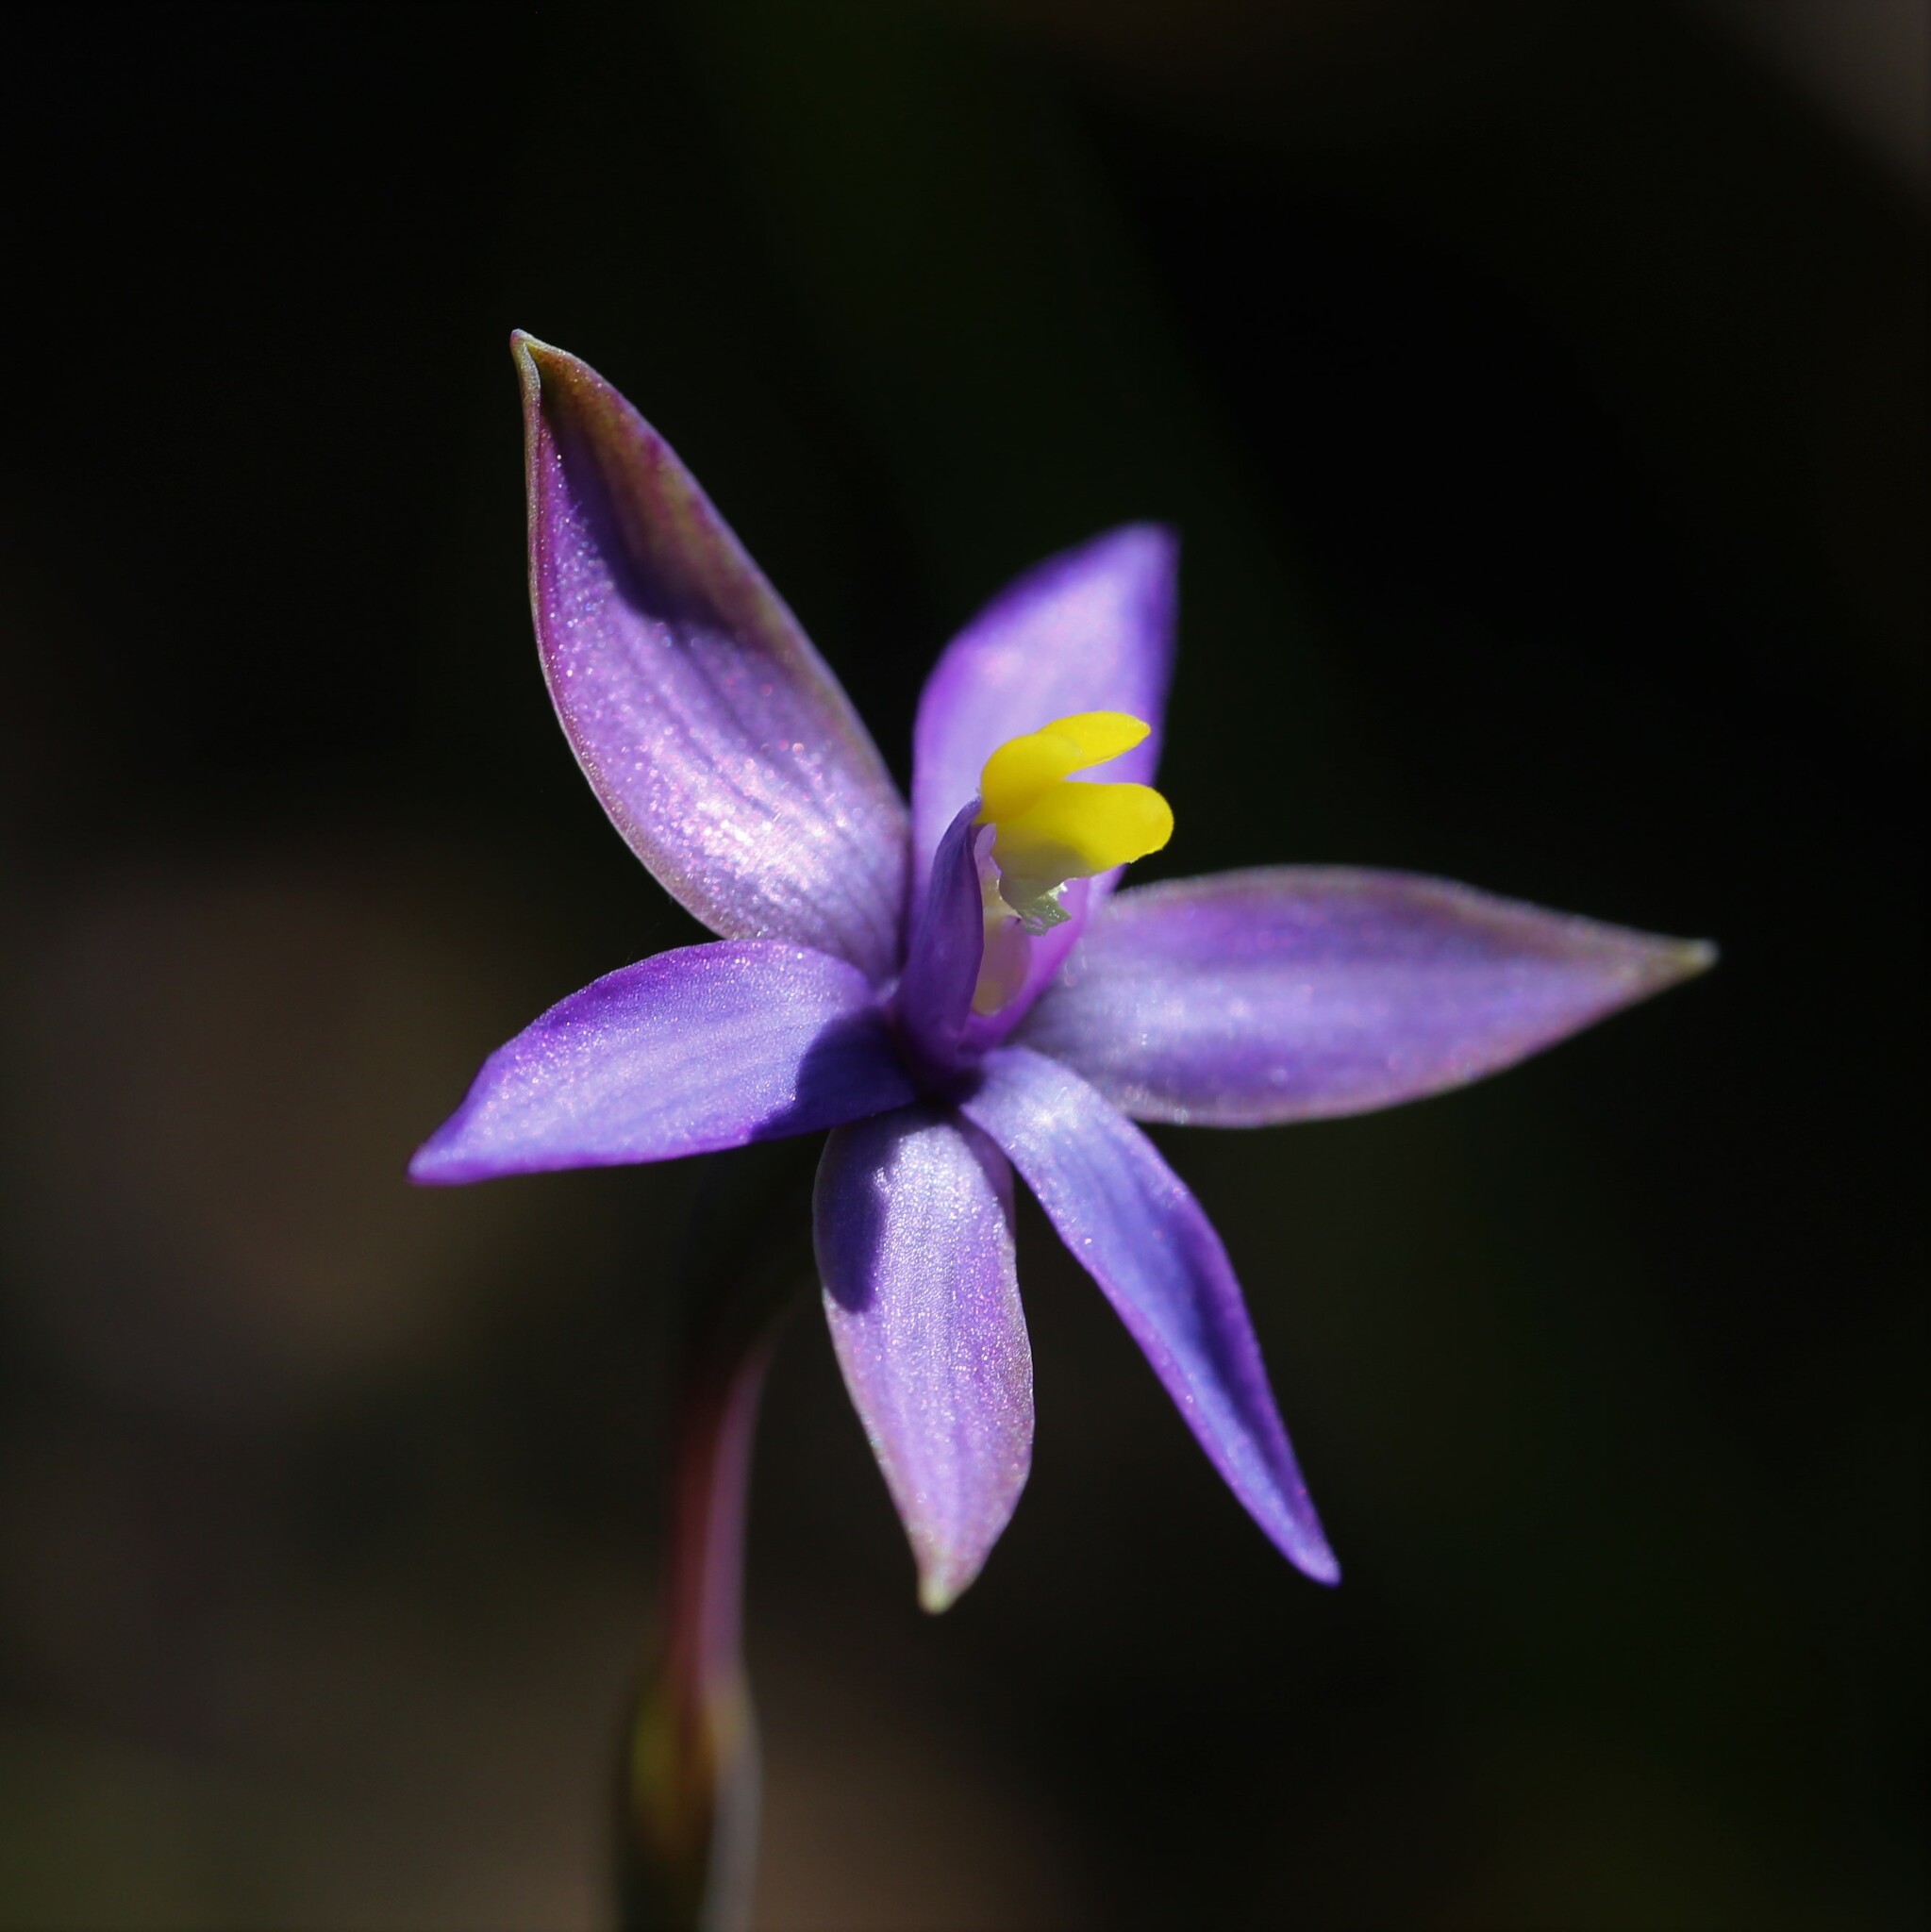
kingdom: Plantae
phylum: Tracheophyta
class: Liliopsida
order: Asparagales
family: Orchidaceae
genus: Thelymitra
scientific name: Thelymitra uliginosa
